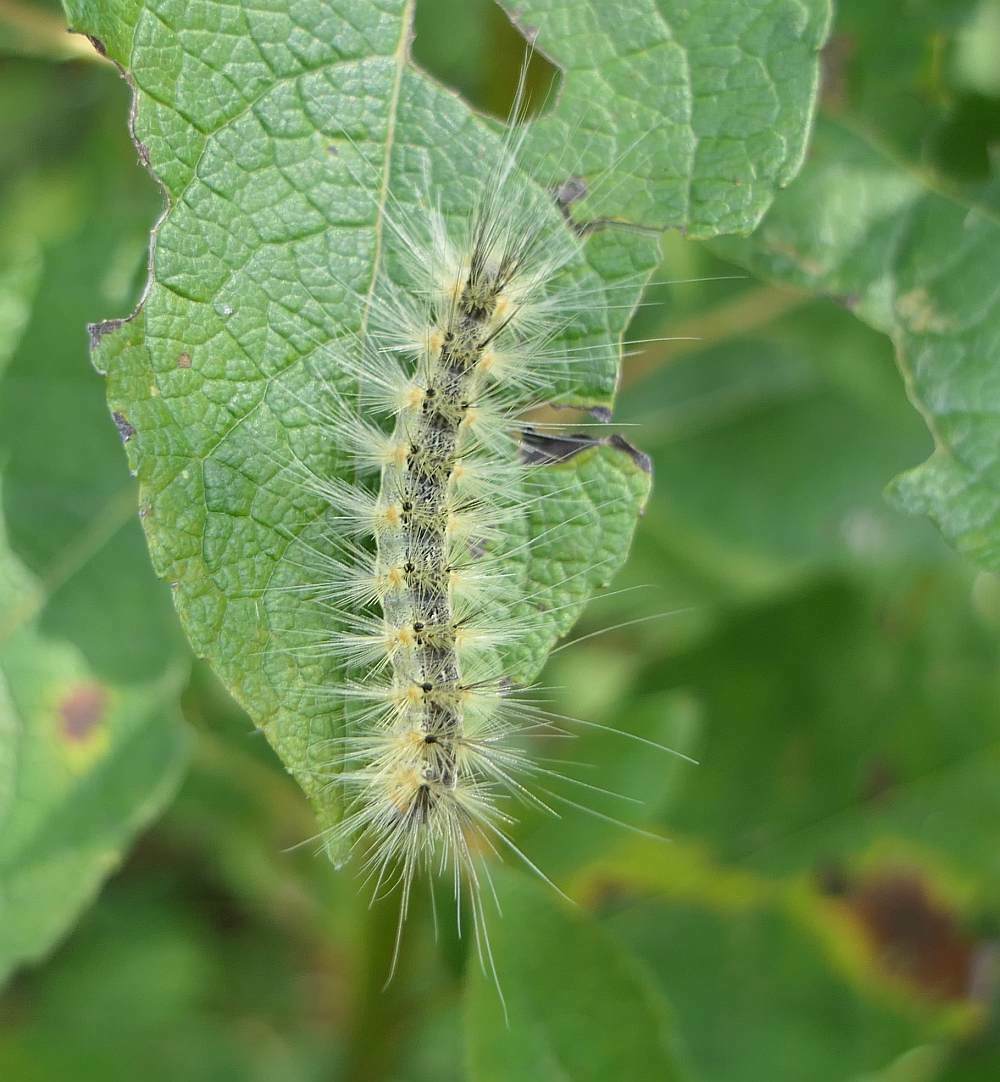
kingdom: Animalia
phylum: Arthropoda
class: Insecta
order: Lepidoptera
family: Erebidae
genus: Hyphantria
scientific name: Hyphantria cunea
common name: American white moth
